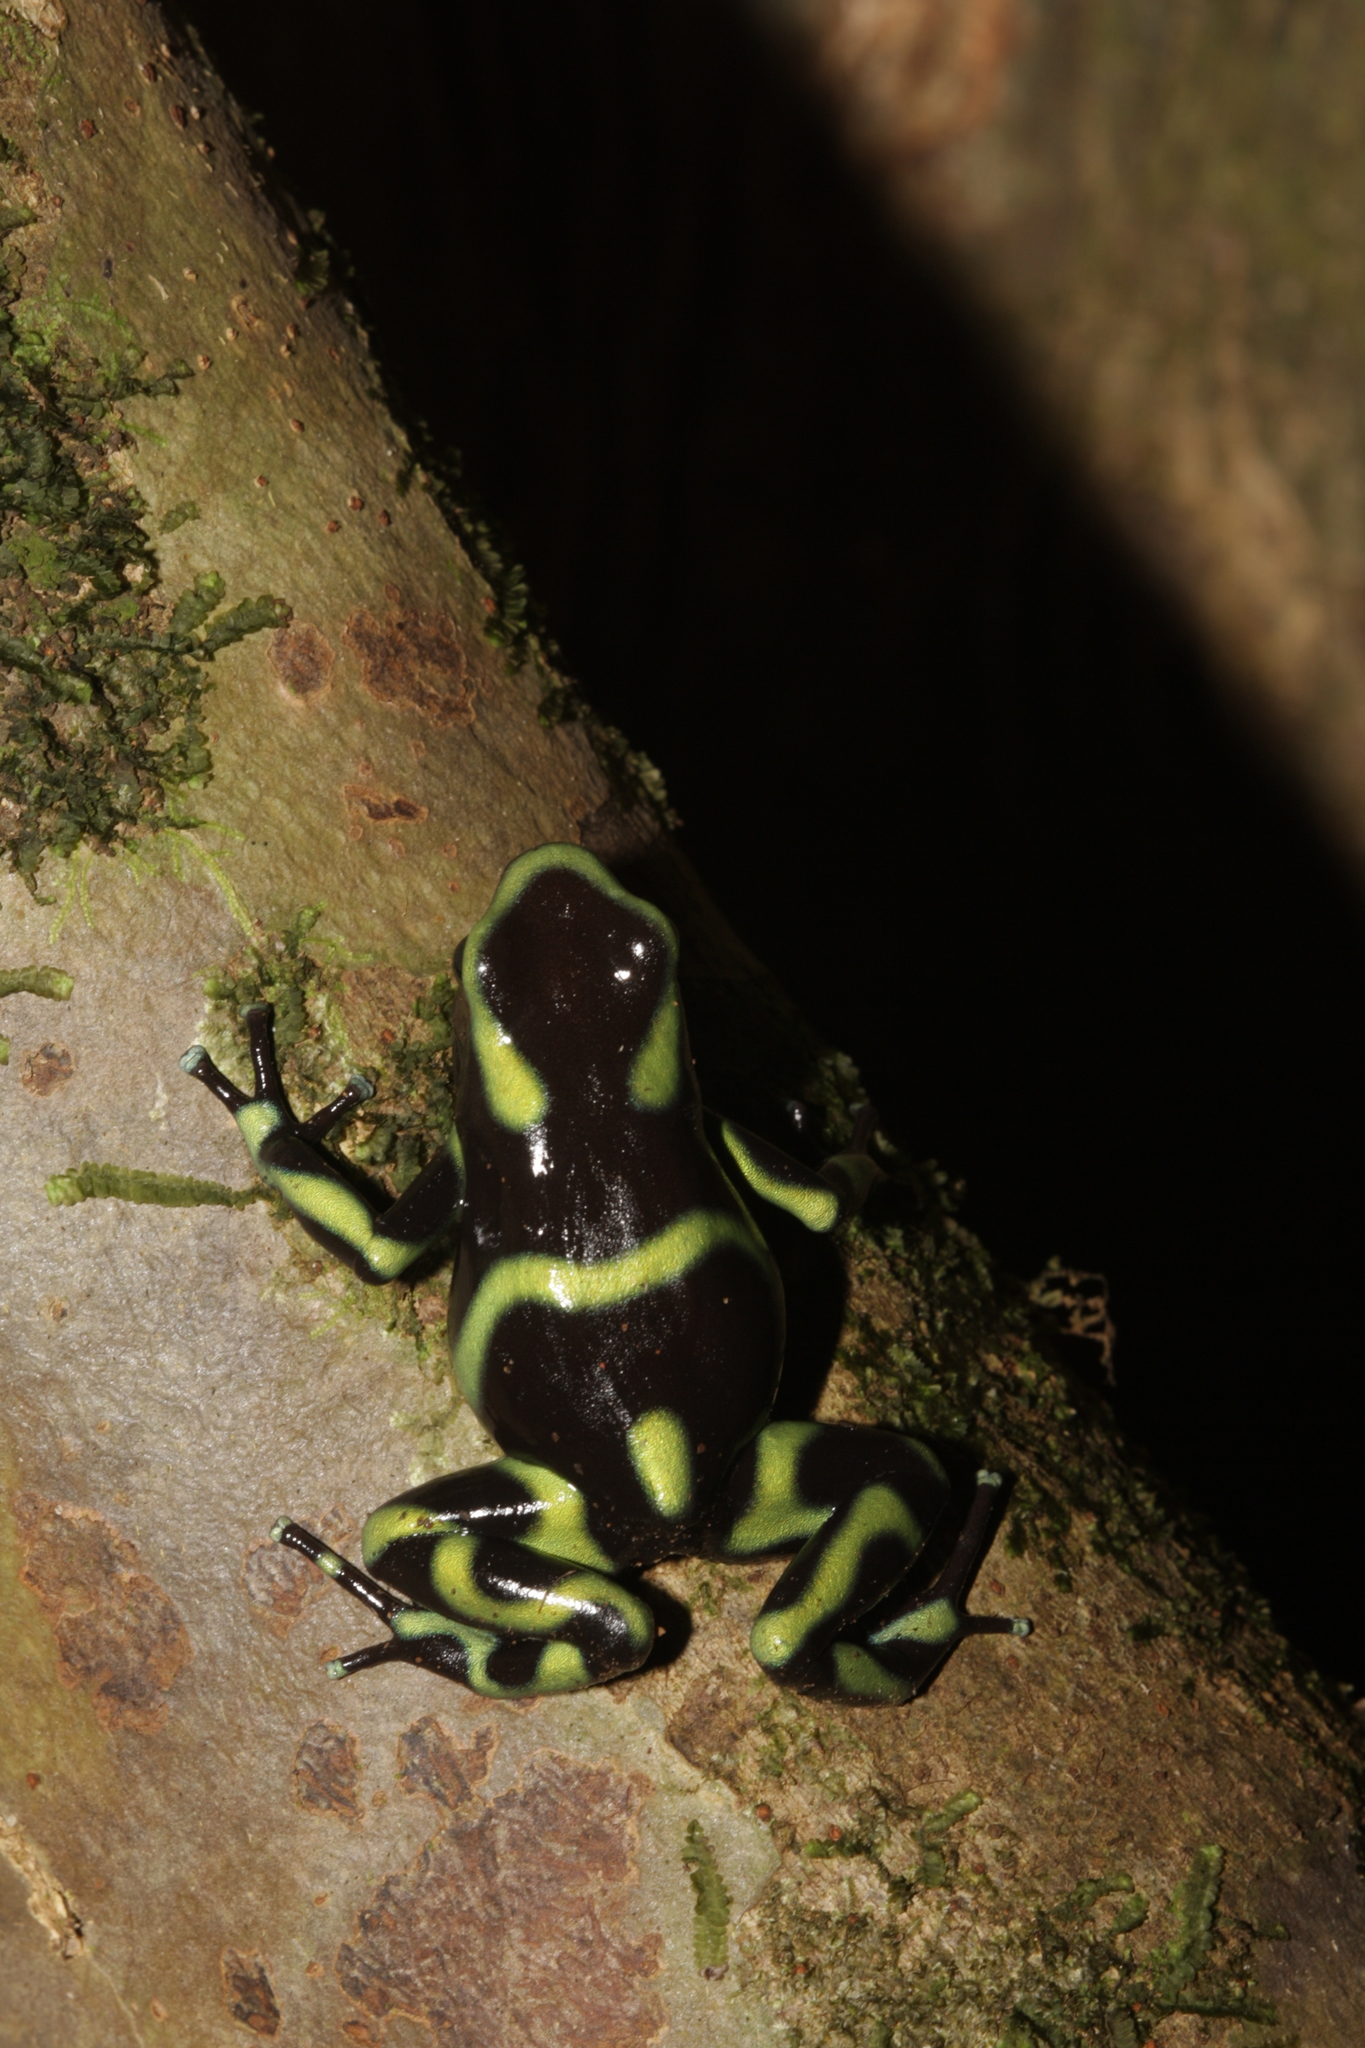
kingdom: Animalia
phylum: Chordata
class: Amphibia
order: Anura
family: Dendrobatidae
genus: Dendrobates
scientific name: Dendrobates auratus
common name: Green and black poison dart frog
